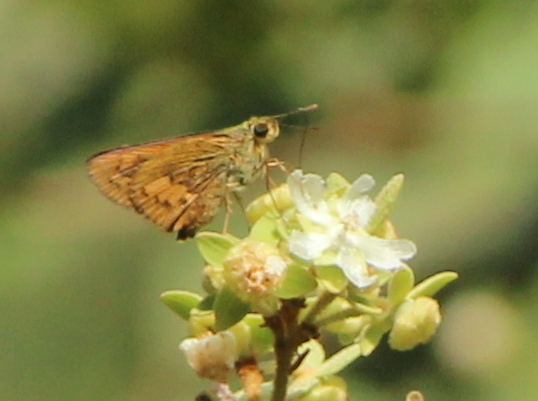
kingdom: Animalia
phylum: Arthropoda
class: Insecta
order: Lepidoptera
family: Hesperiidae
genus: Telicota
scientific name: Telicota bambusae
